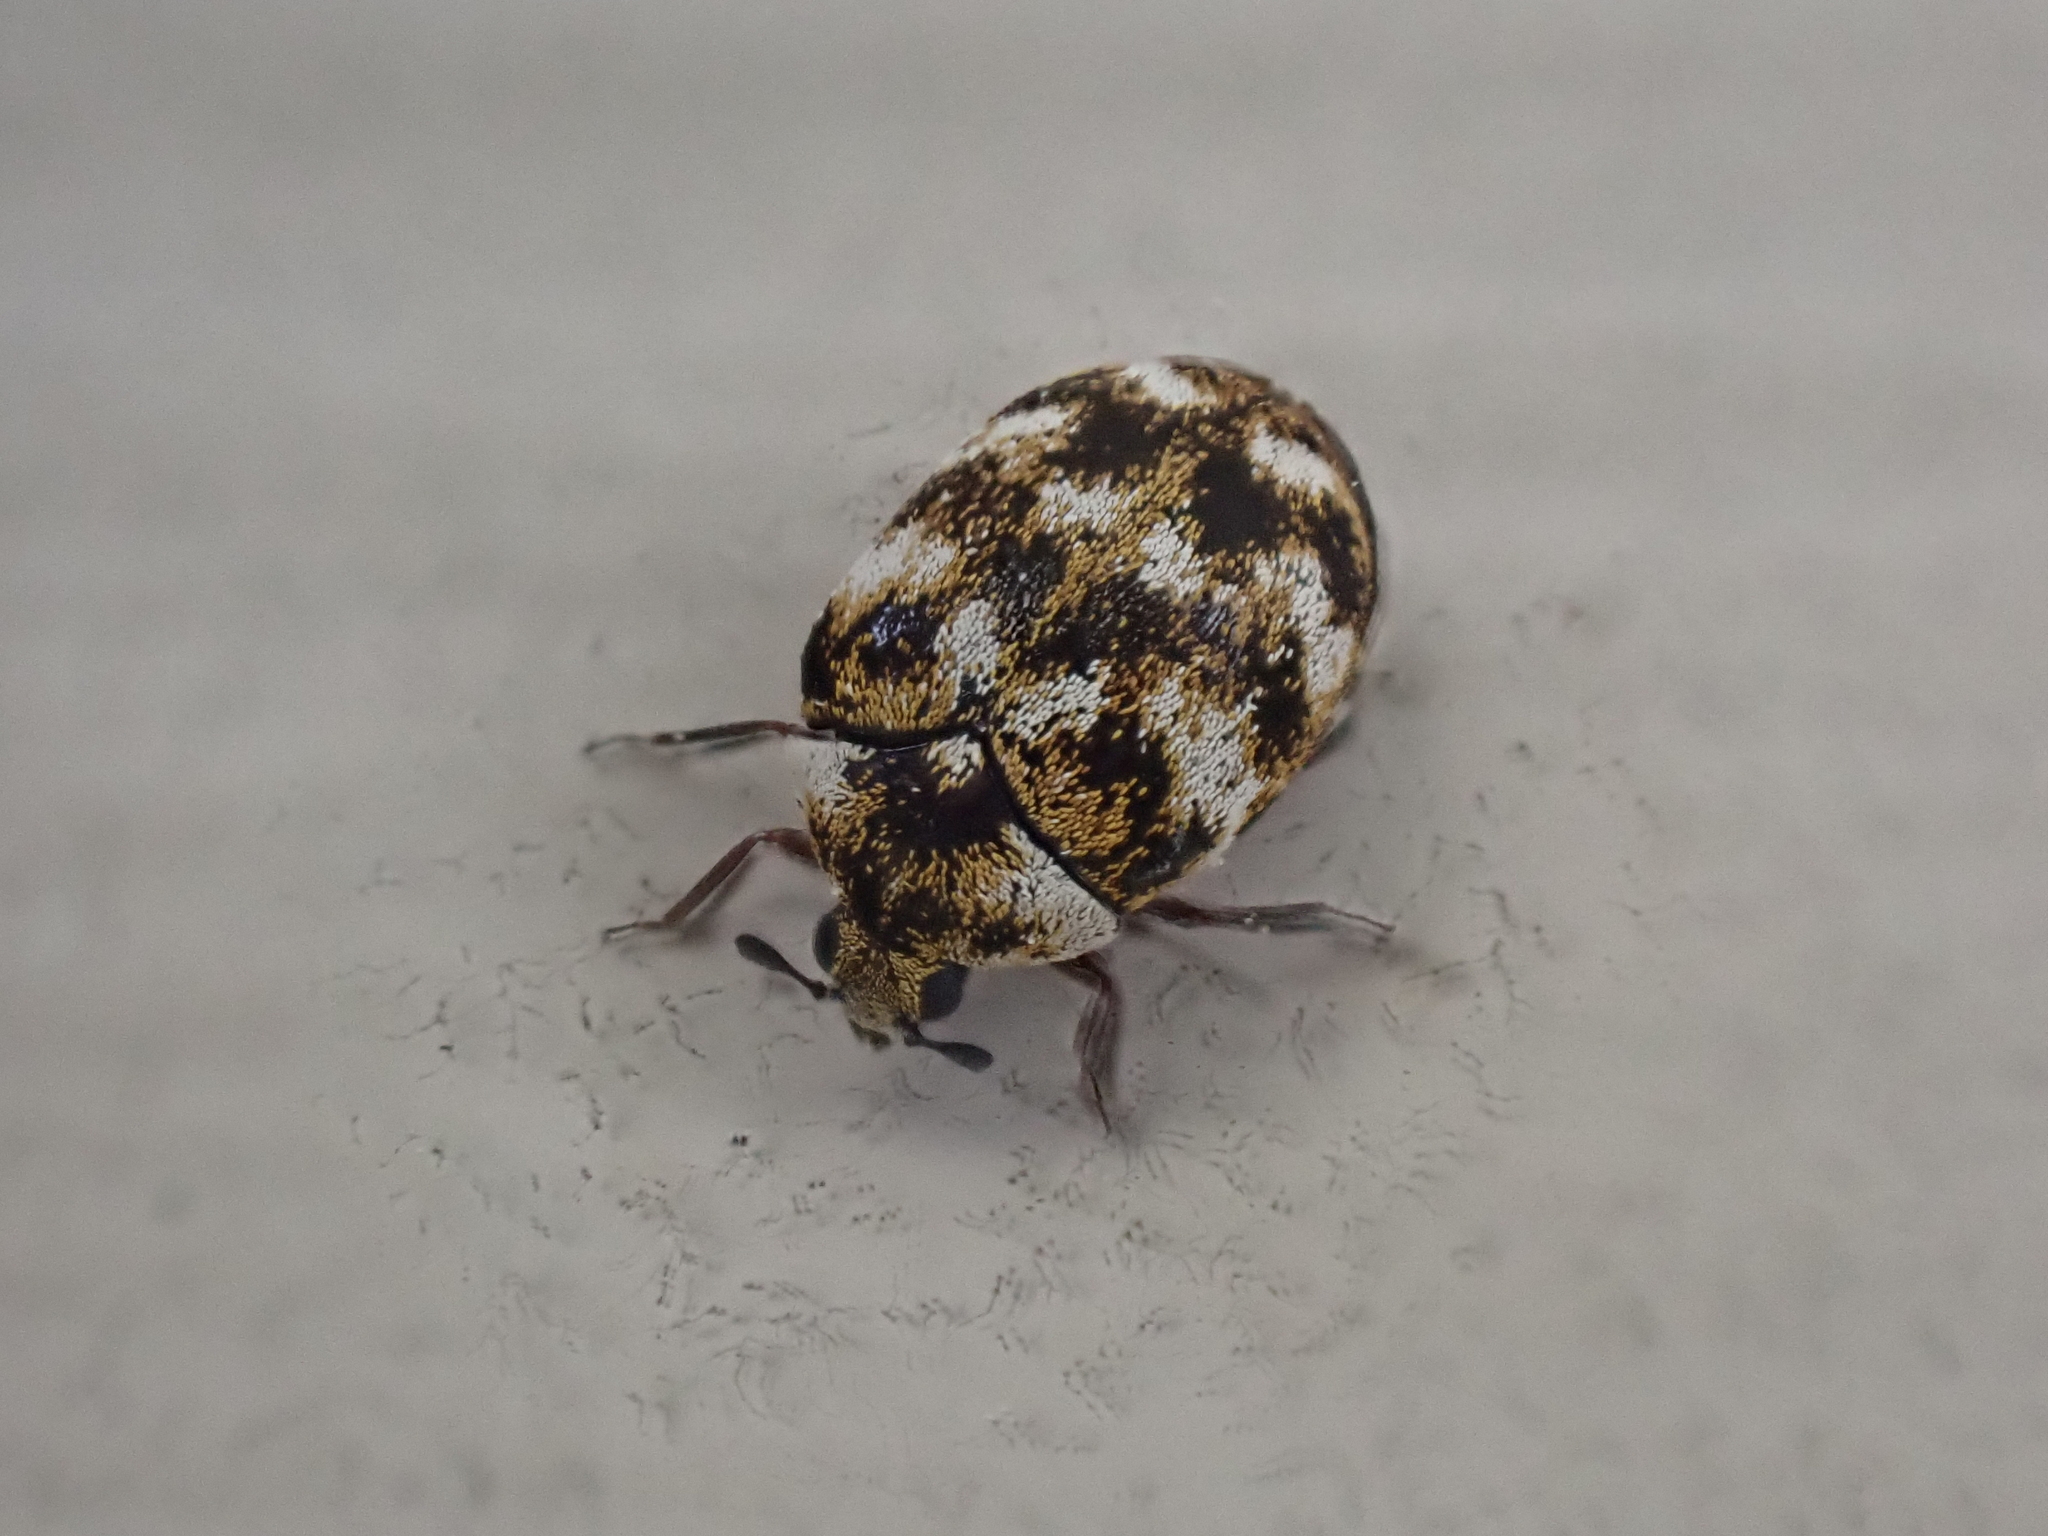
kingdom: Animalia
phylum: Arthropoda
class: Insecta
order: Coleoptera
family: Dermestidae
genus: Anthrenus
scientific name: Anthrenus verbasci
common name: Varied carpet beetle
